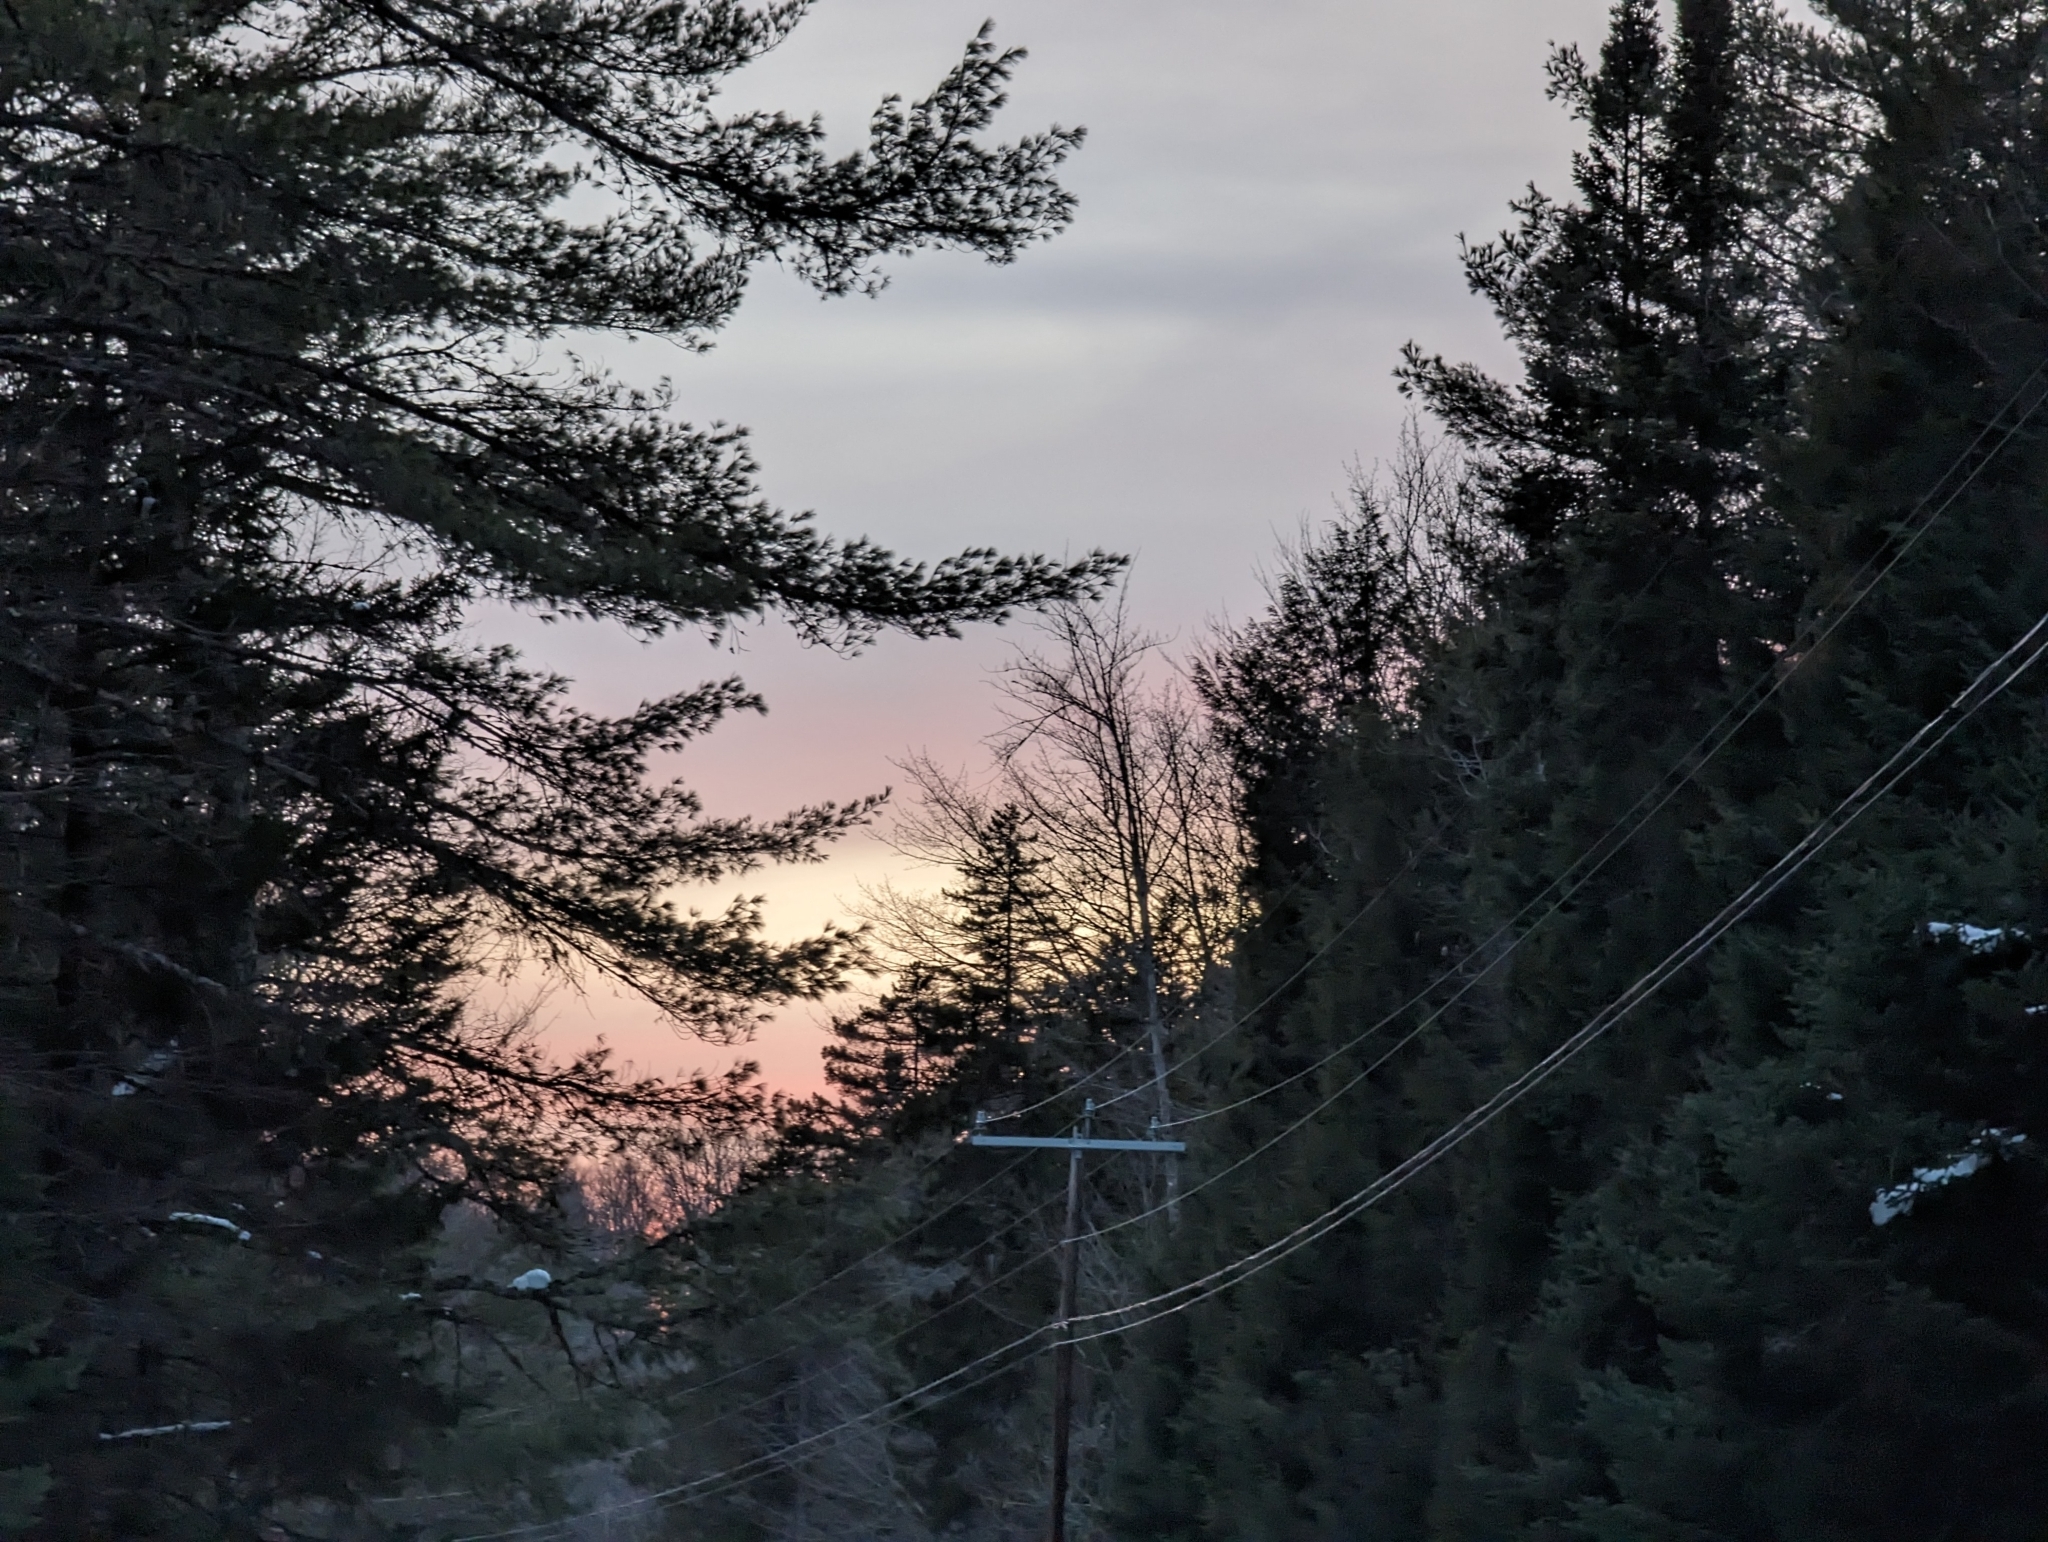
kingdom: Plantae
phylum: Tracheophyta
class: Pinopsida
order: Pinales
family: Pinaceae
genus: Pinus
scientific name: Pinus strobus
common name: Weymouth pine
